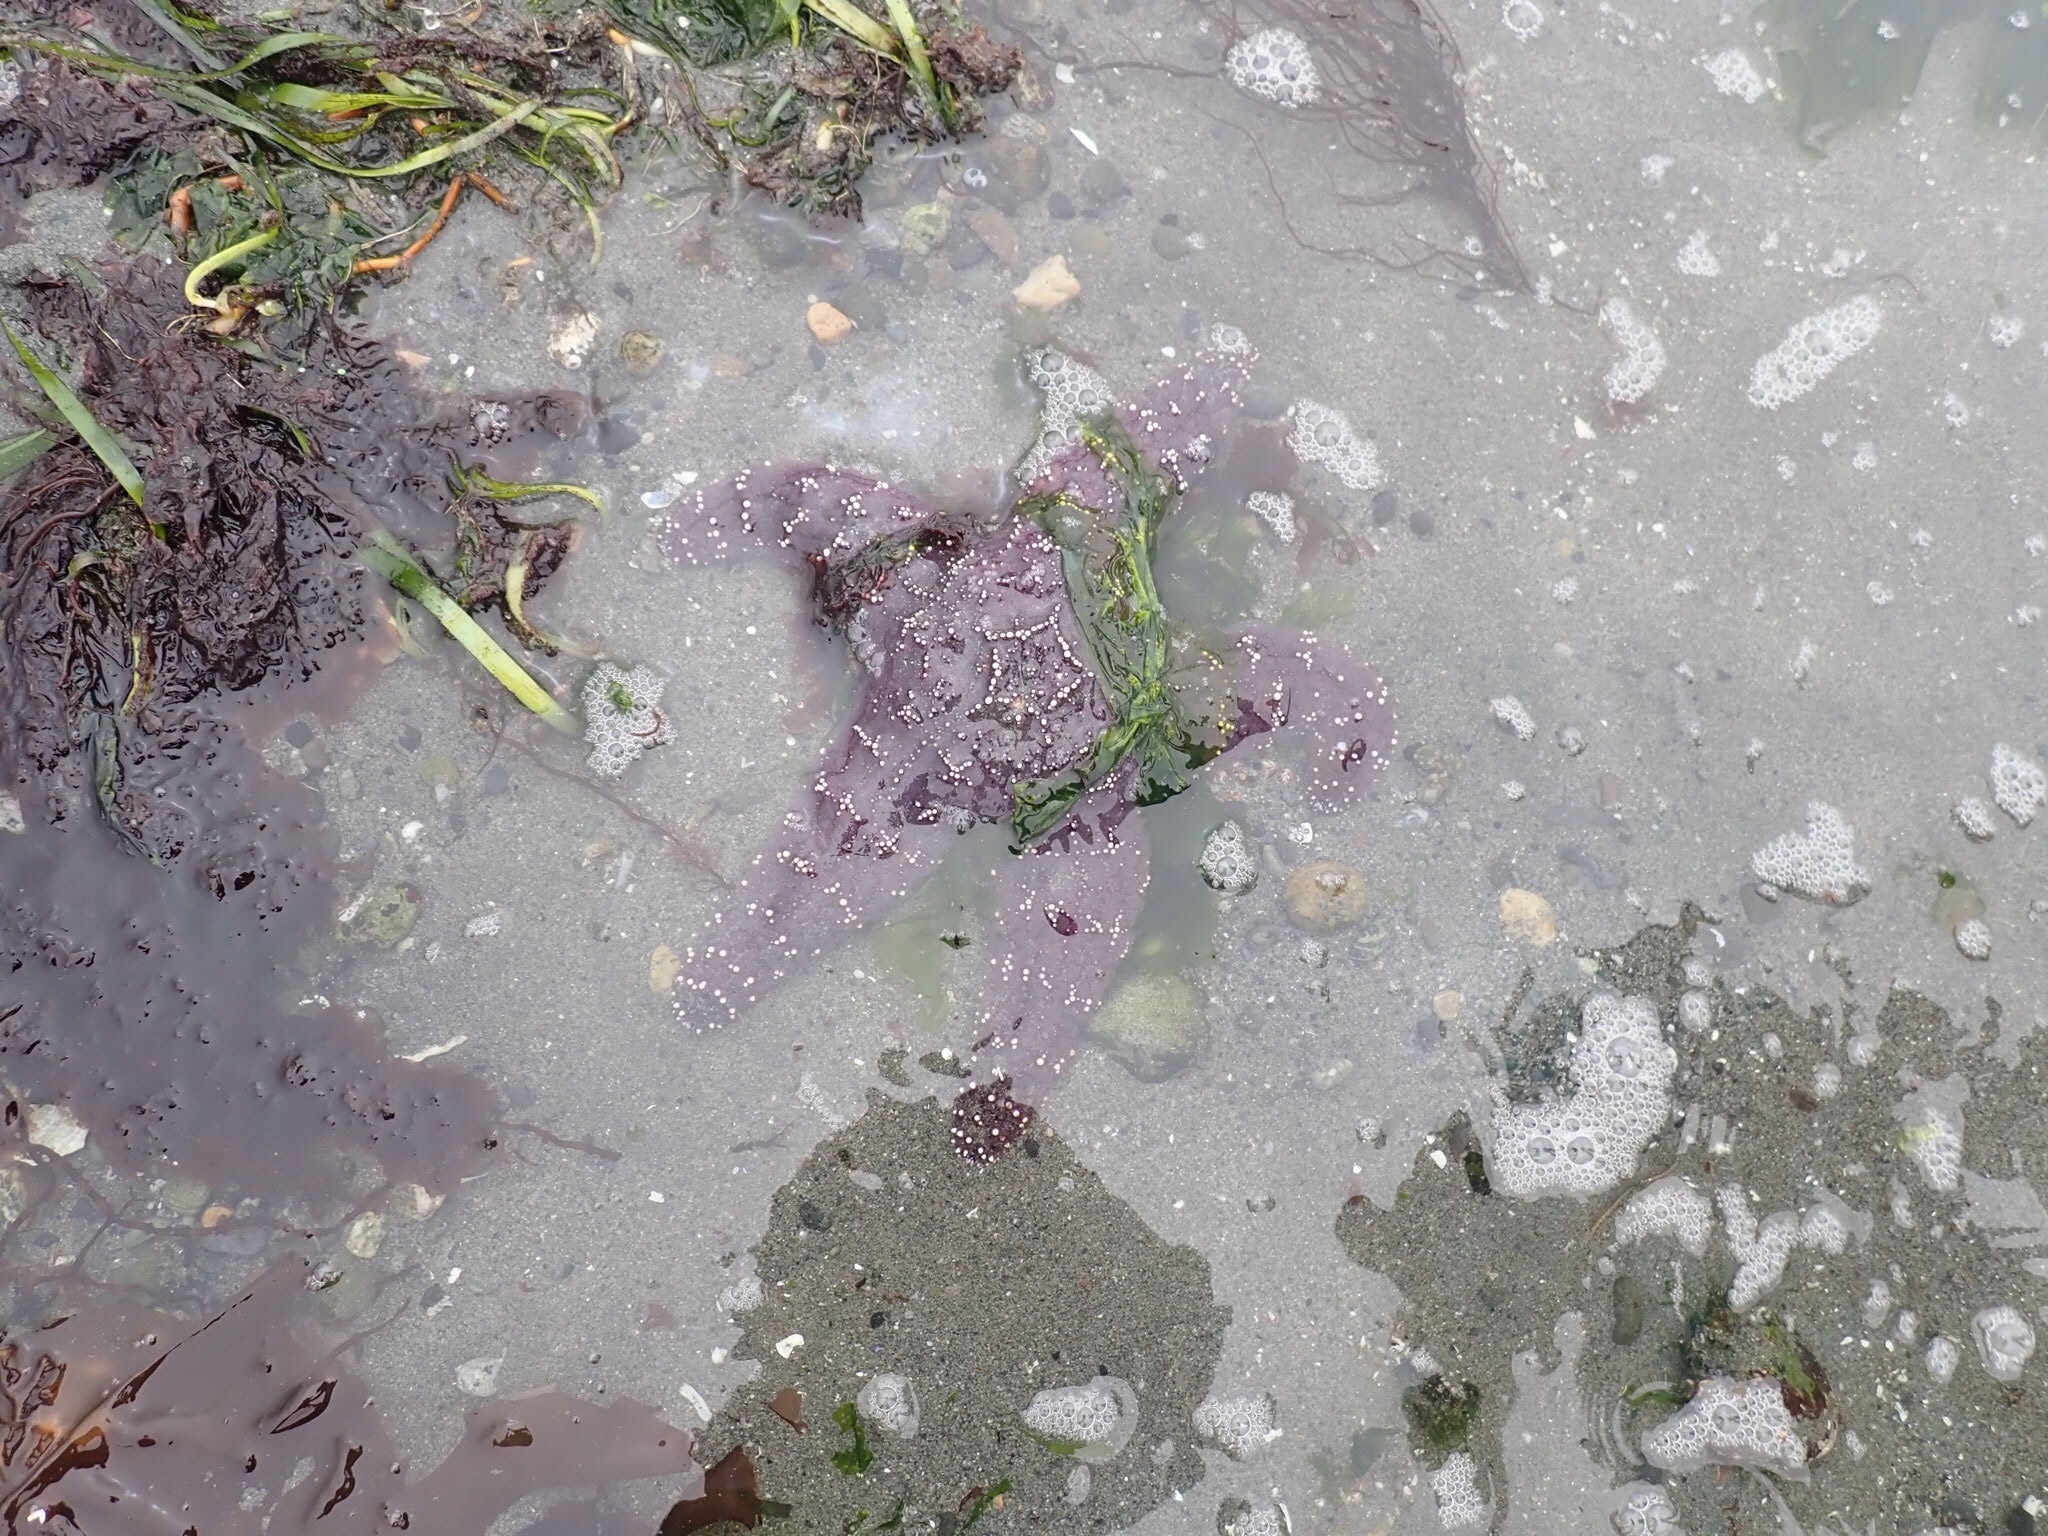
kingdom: Animalia
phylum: Echinodermata
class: Asteroidea
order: Forcipulatida
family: Asteriidae
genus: Pisaster
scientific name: Pisaster ochraceus
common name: Ochre stars
